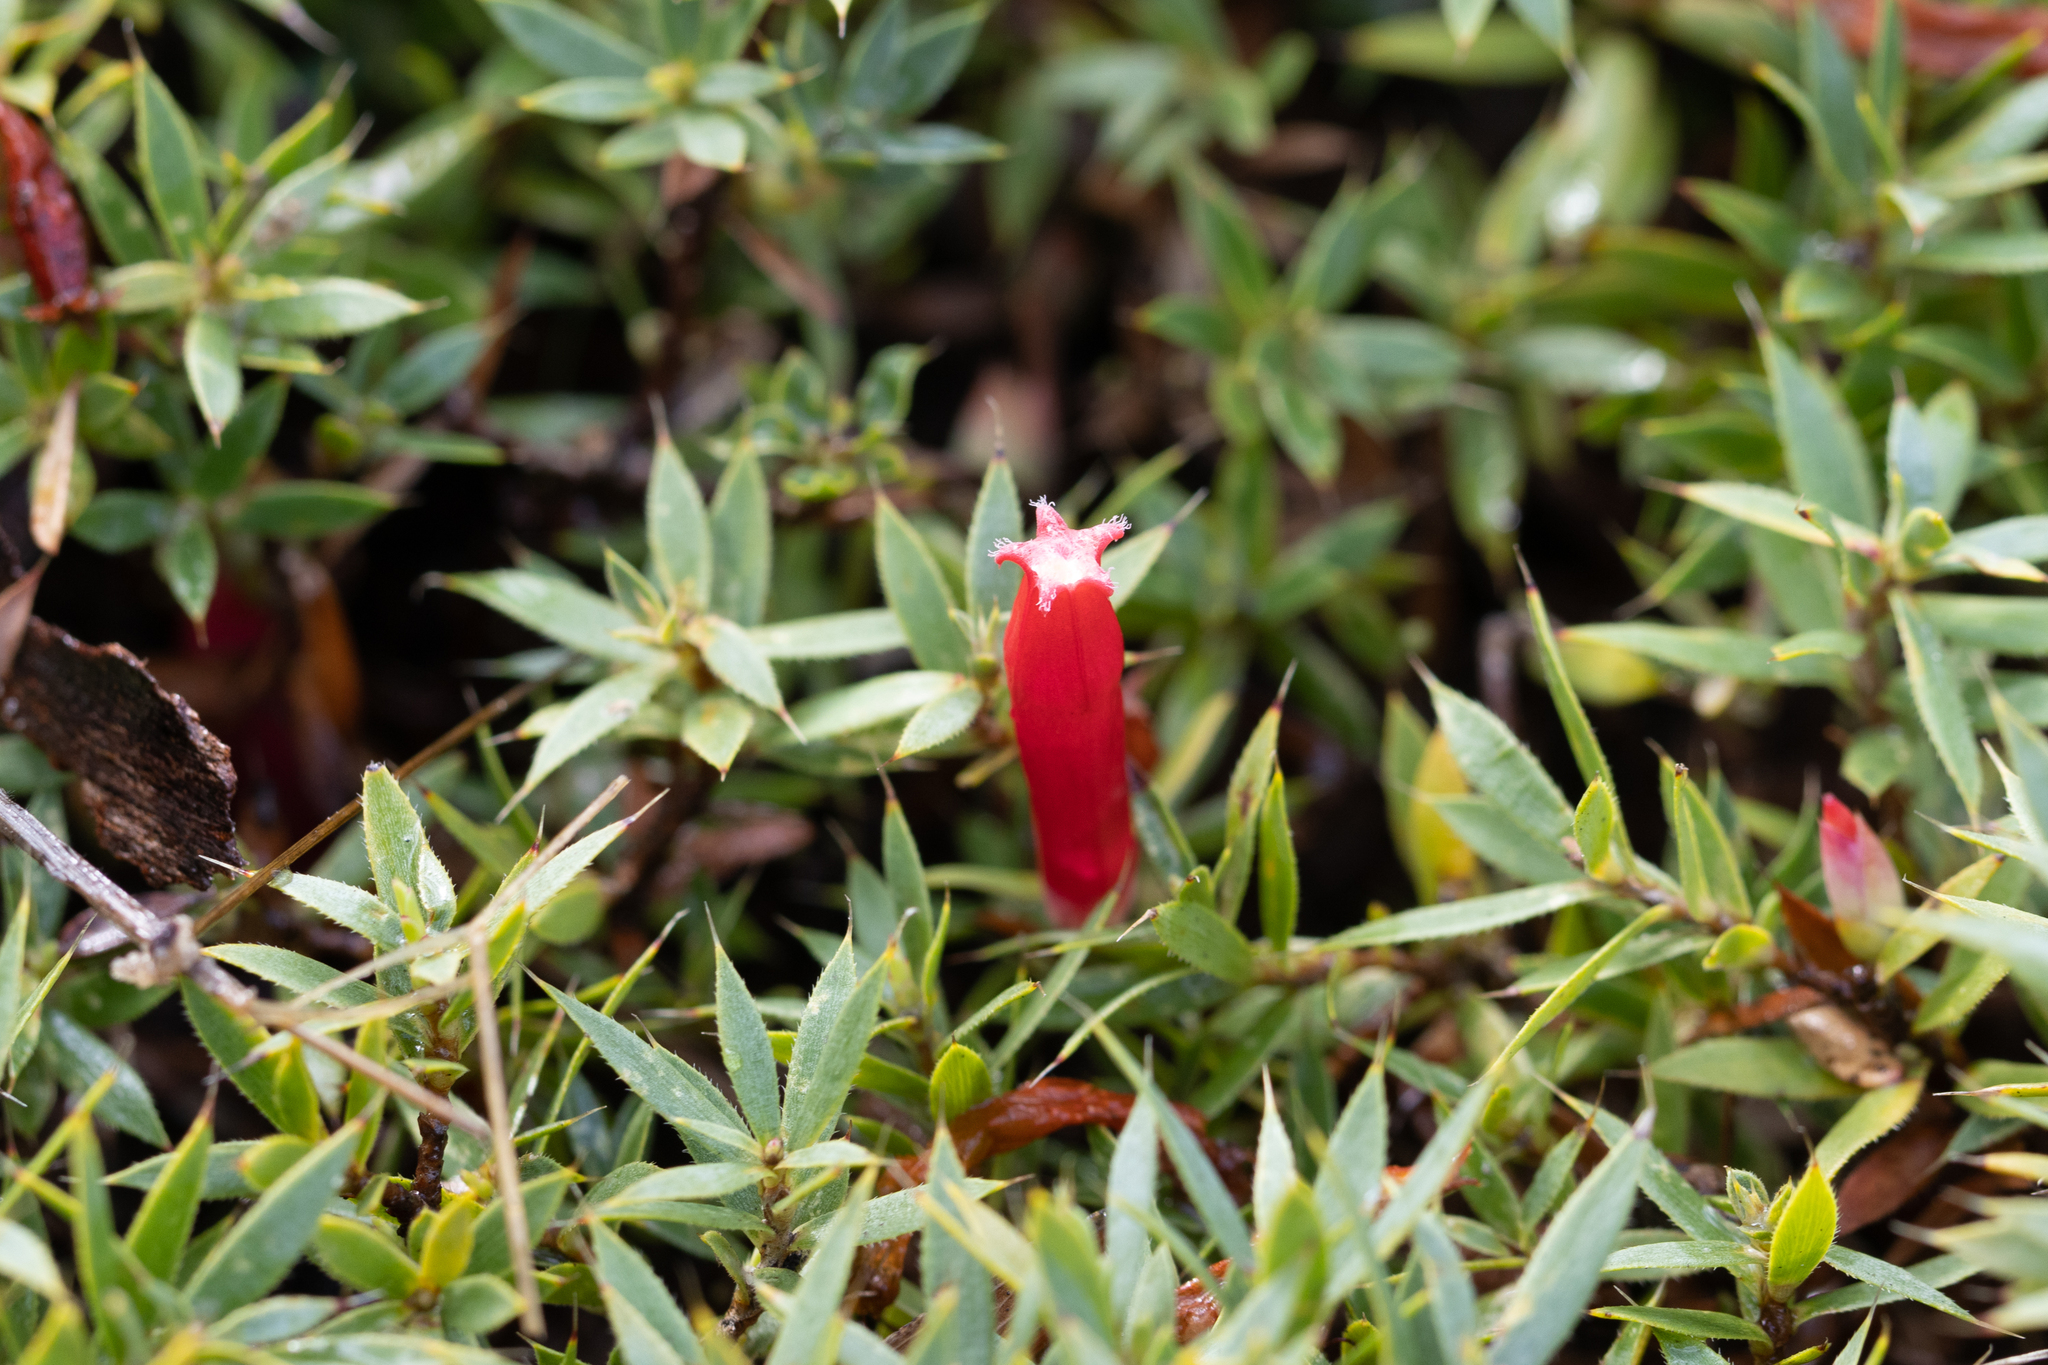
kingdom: Plantae
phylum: Tracheophyta
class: Magnoliopsida
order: Ericales
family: Ericaceae
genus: Styphelia
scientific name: Styphelia humifusa
